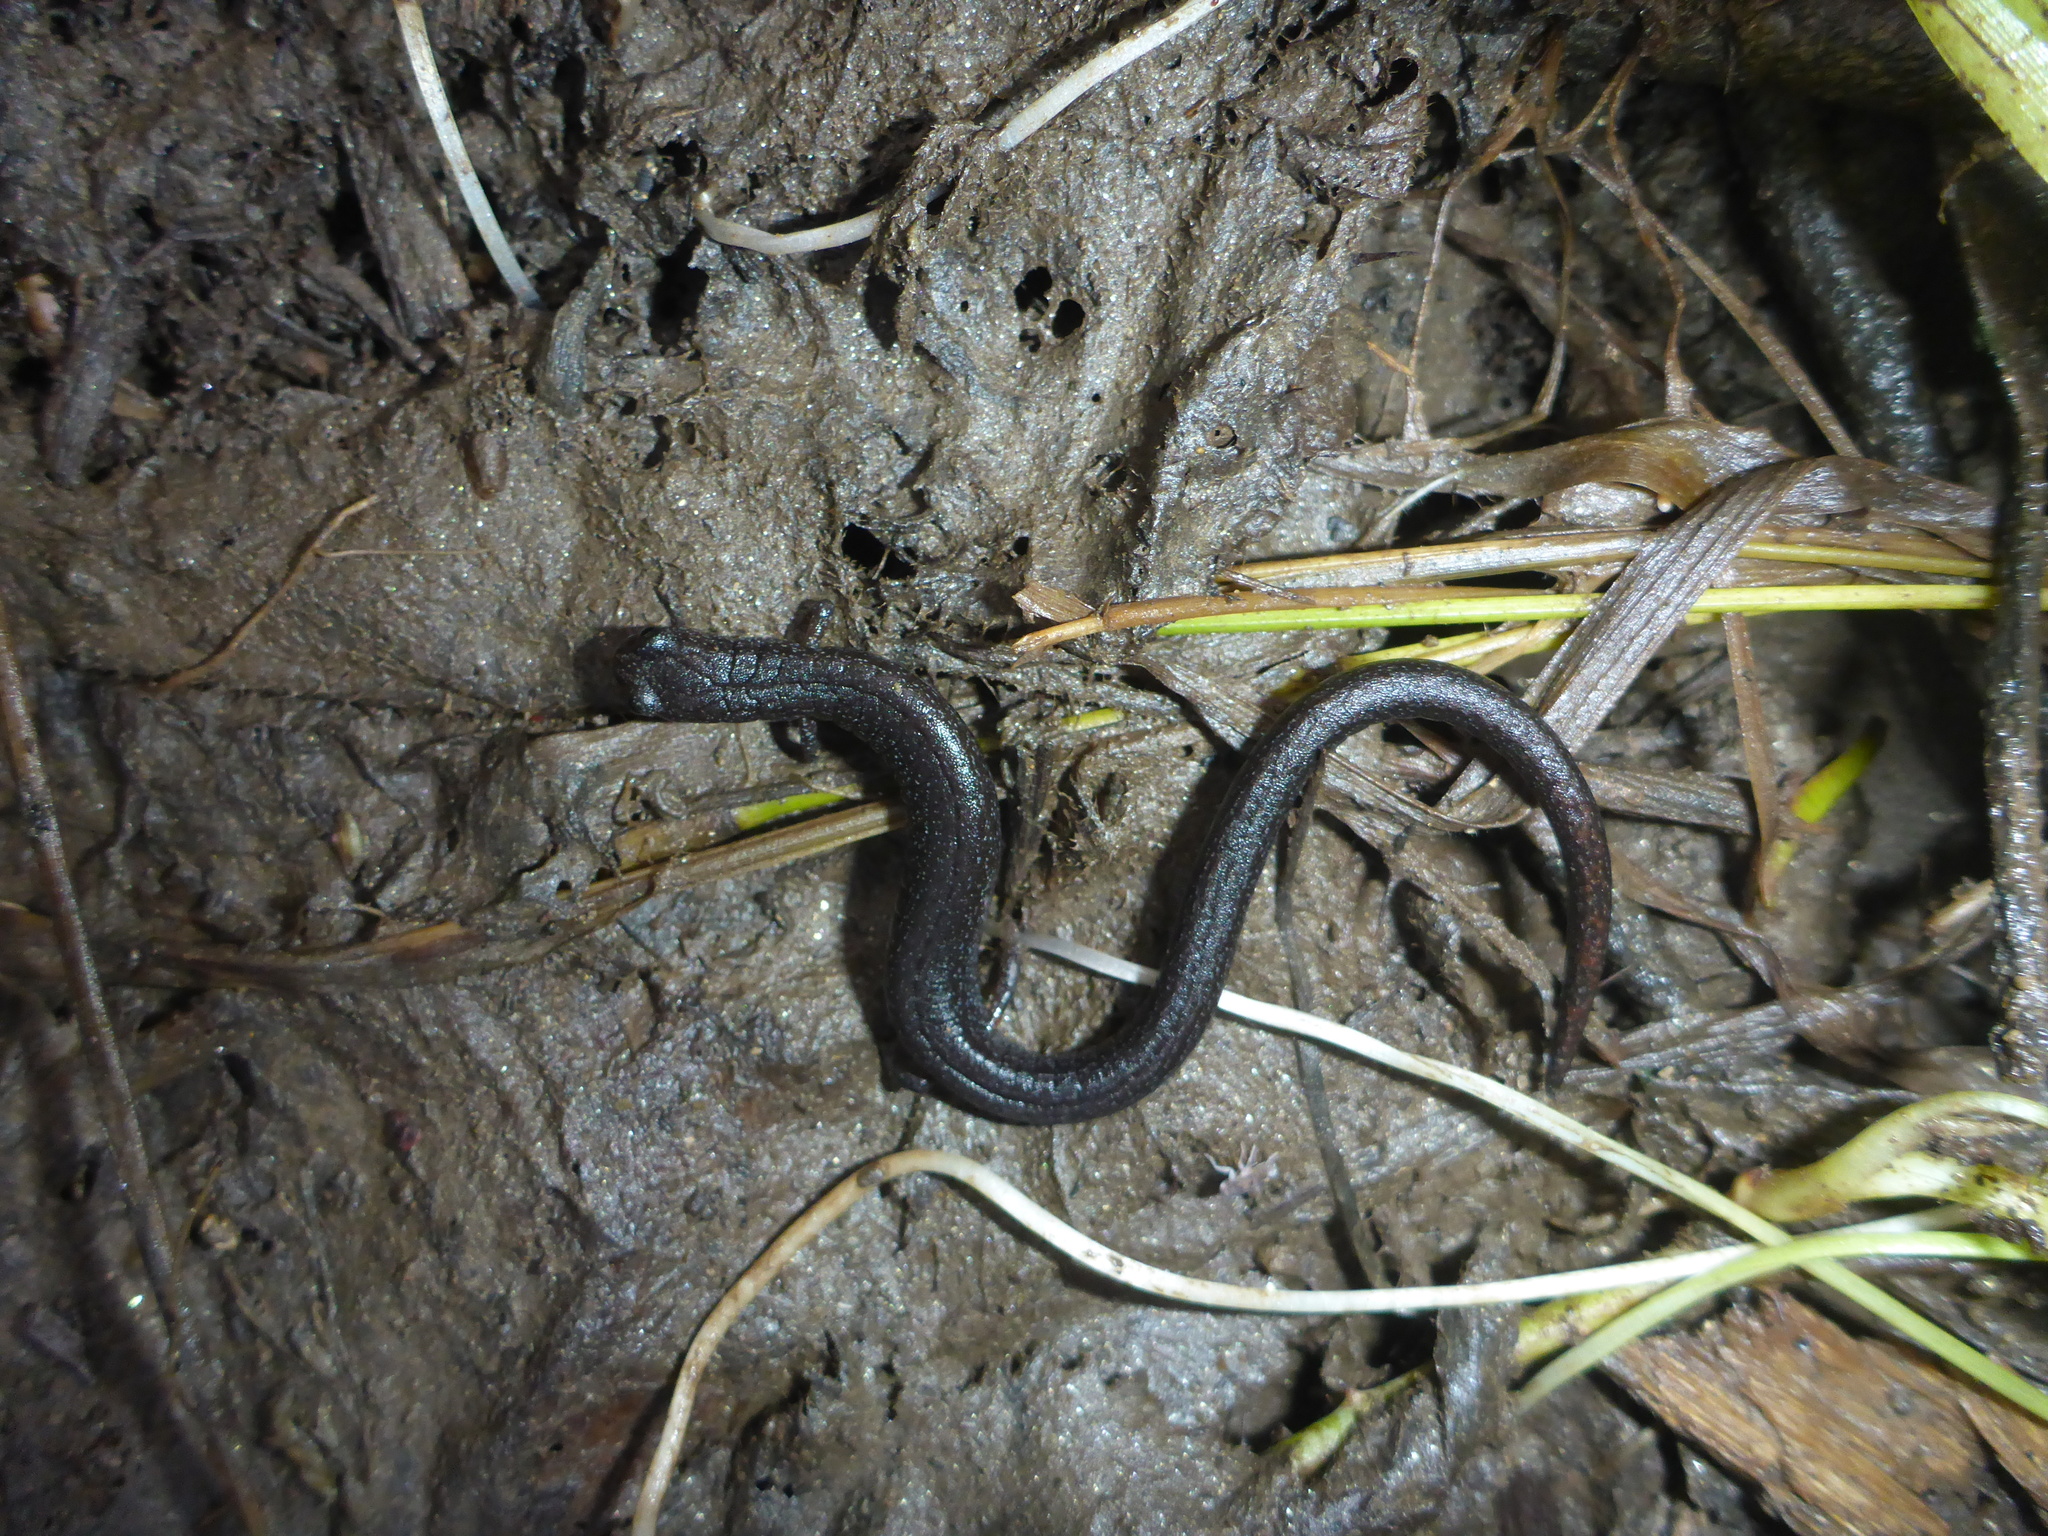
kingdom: Animalia
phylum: Chordata
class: Amphibia
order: Caudata
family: Plethodontidae
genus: Batrachoseps
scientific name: Batrachoseps attenuatus
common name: California slender salamander
